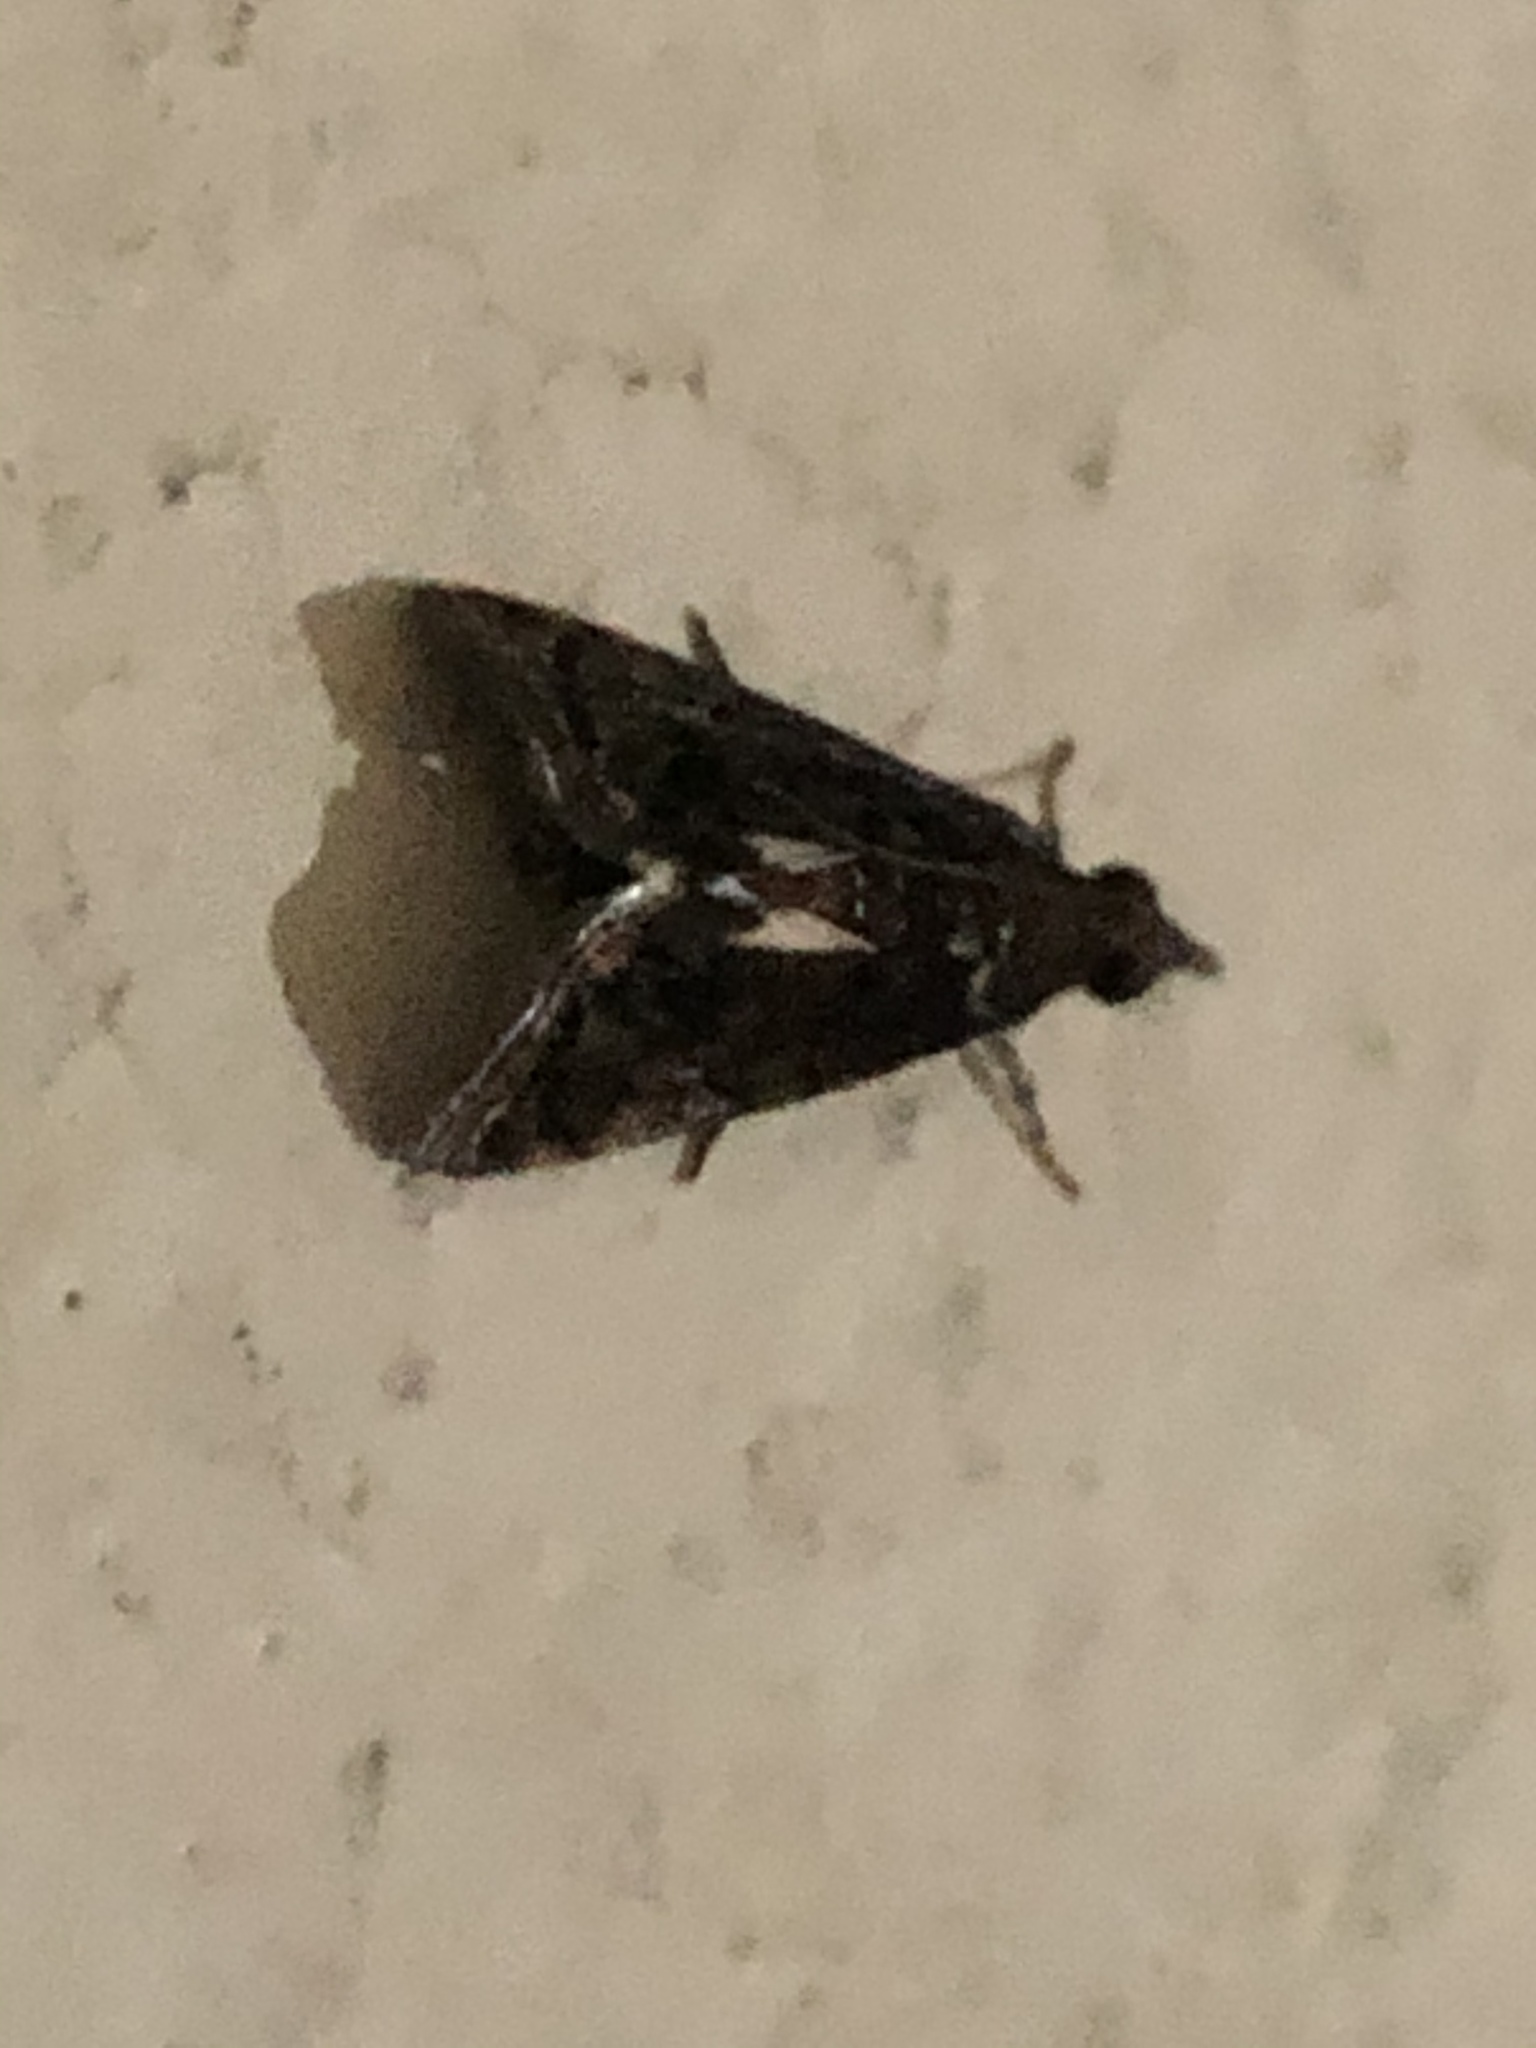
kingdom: Animalia
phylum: Arthropoda
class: Insecta
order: Lepidoptera
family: Crambidae
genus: Noorda
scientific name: Noorda blitealis
